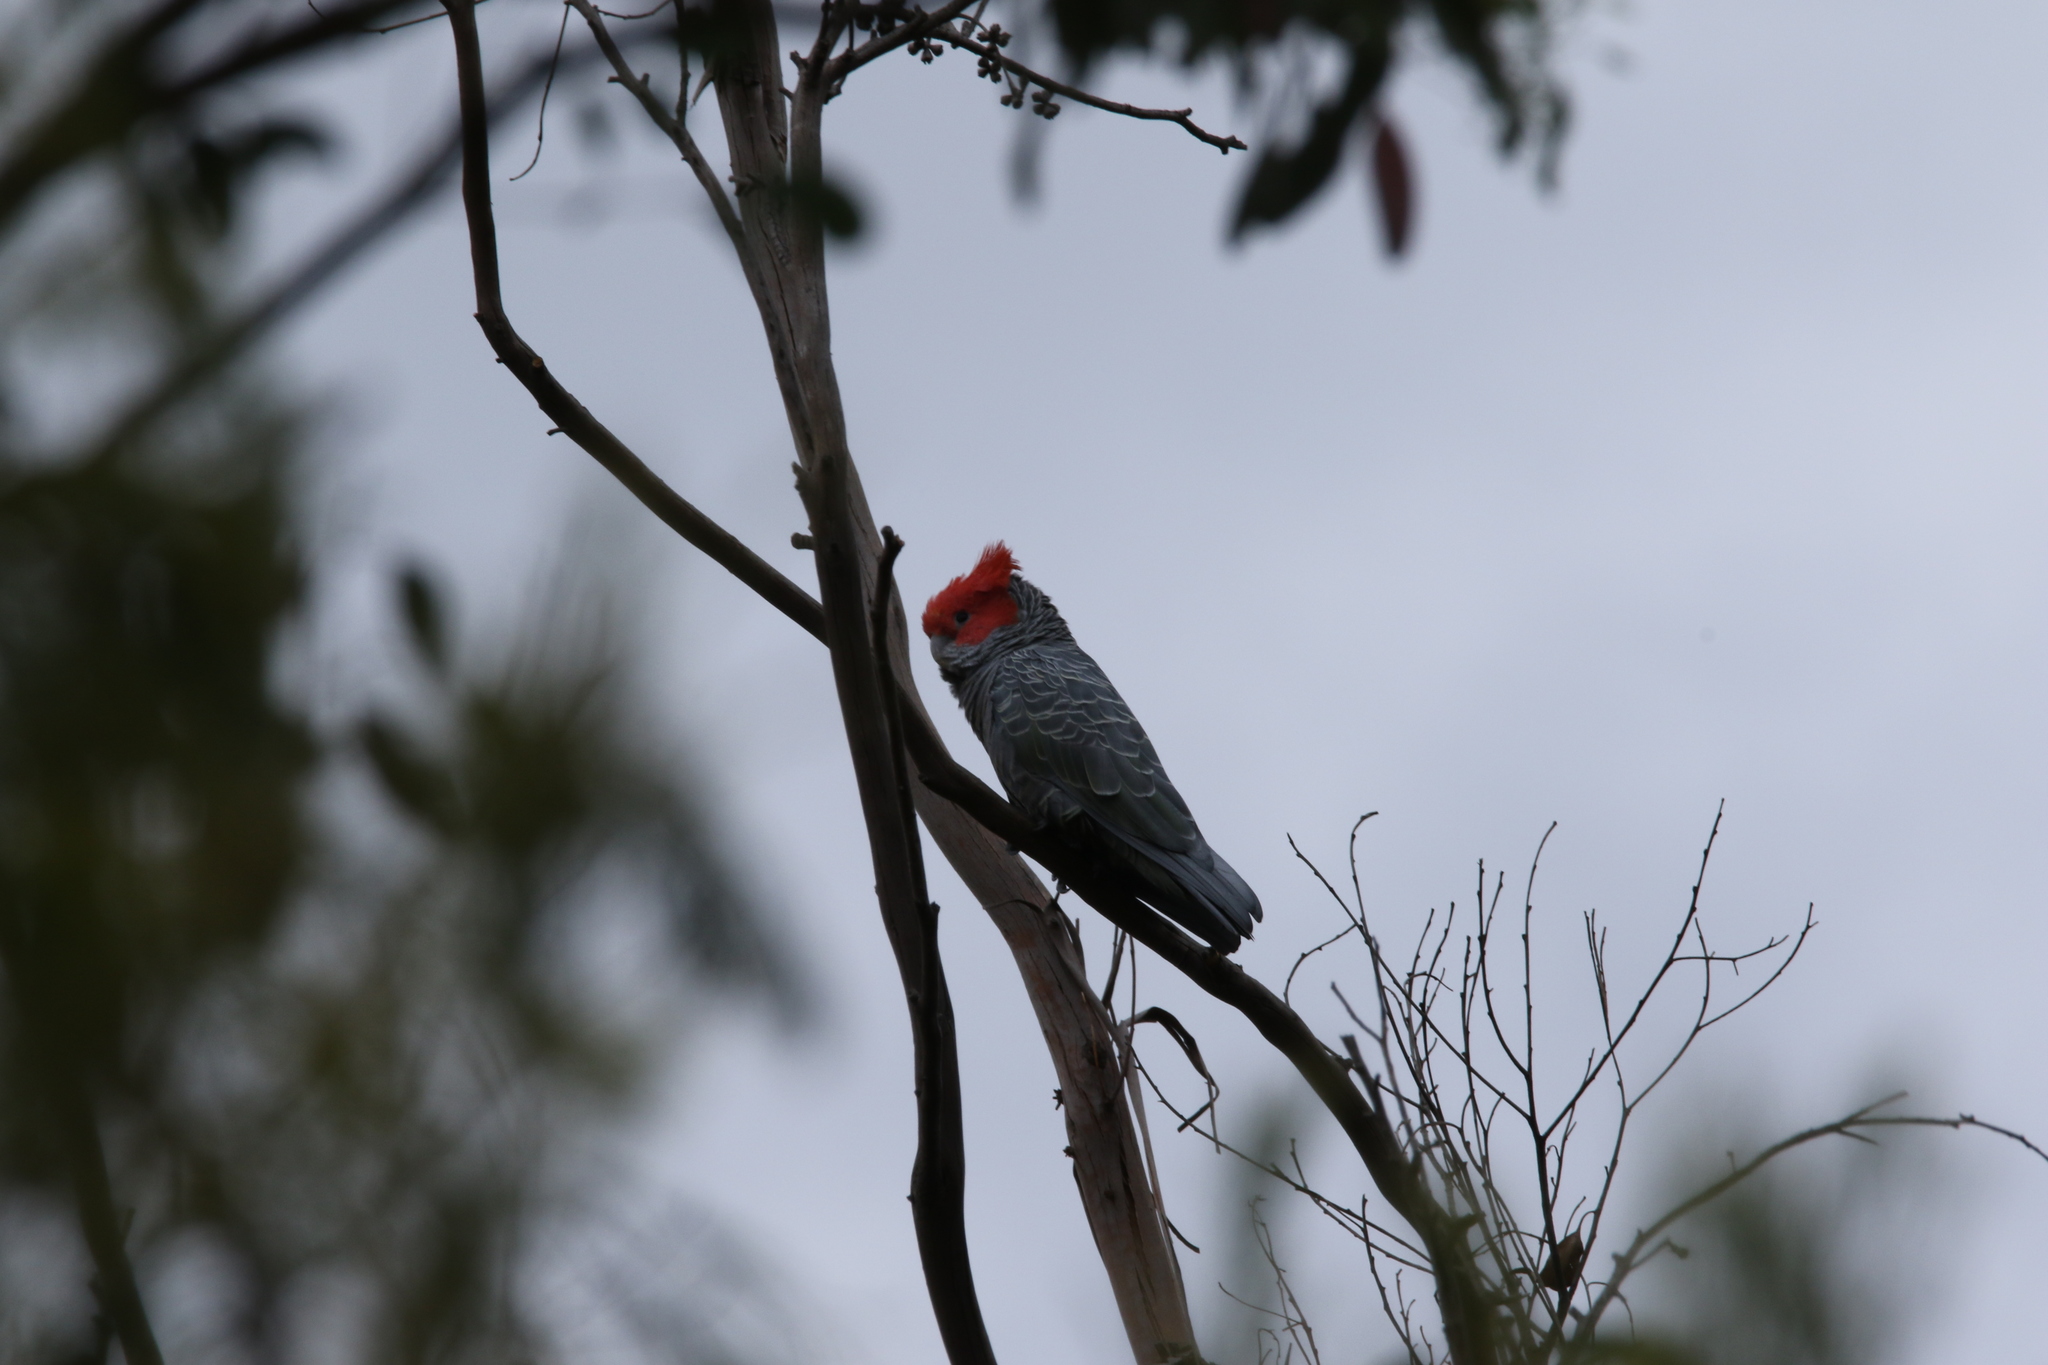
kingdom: Animalia
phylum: Chordata
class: Aves
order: Psittaciformes
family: Psittacidae
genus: Callocephalon
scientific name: Callocephalon fimbriatum
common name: Gang-gang cockatoo
